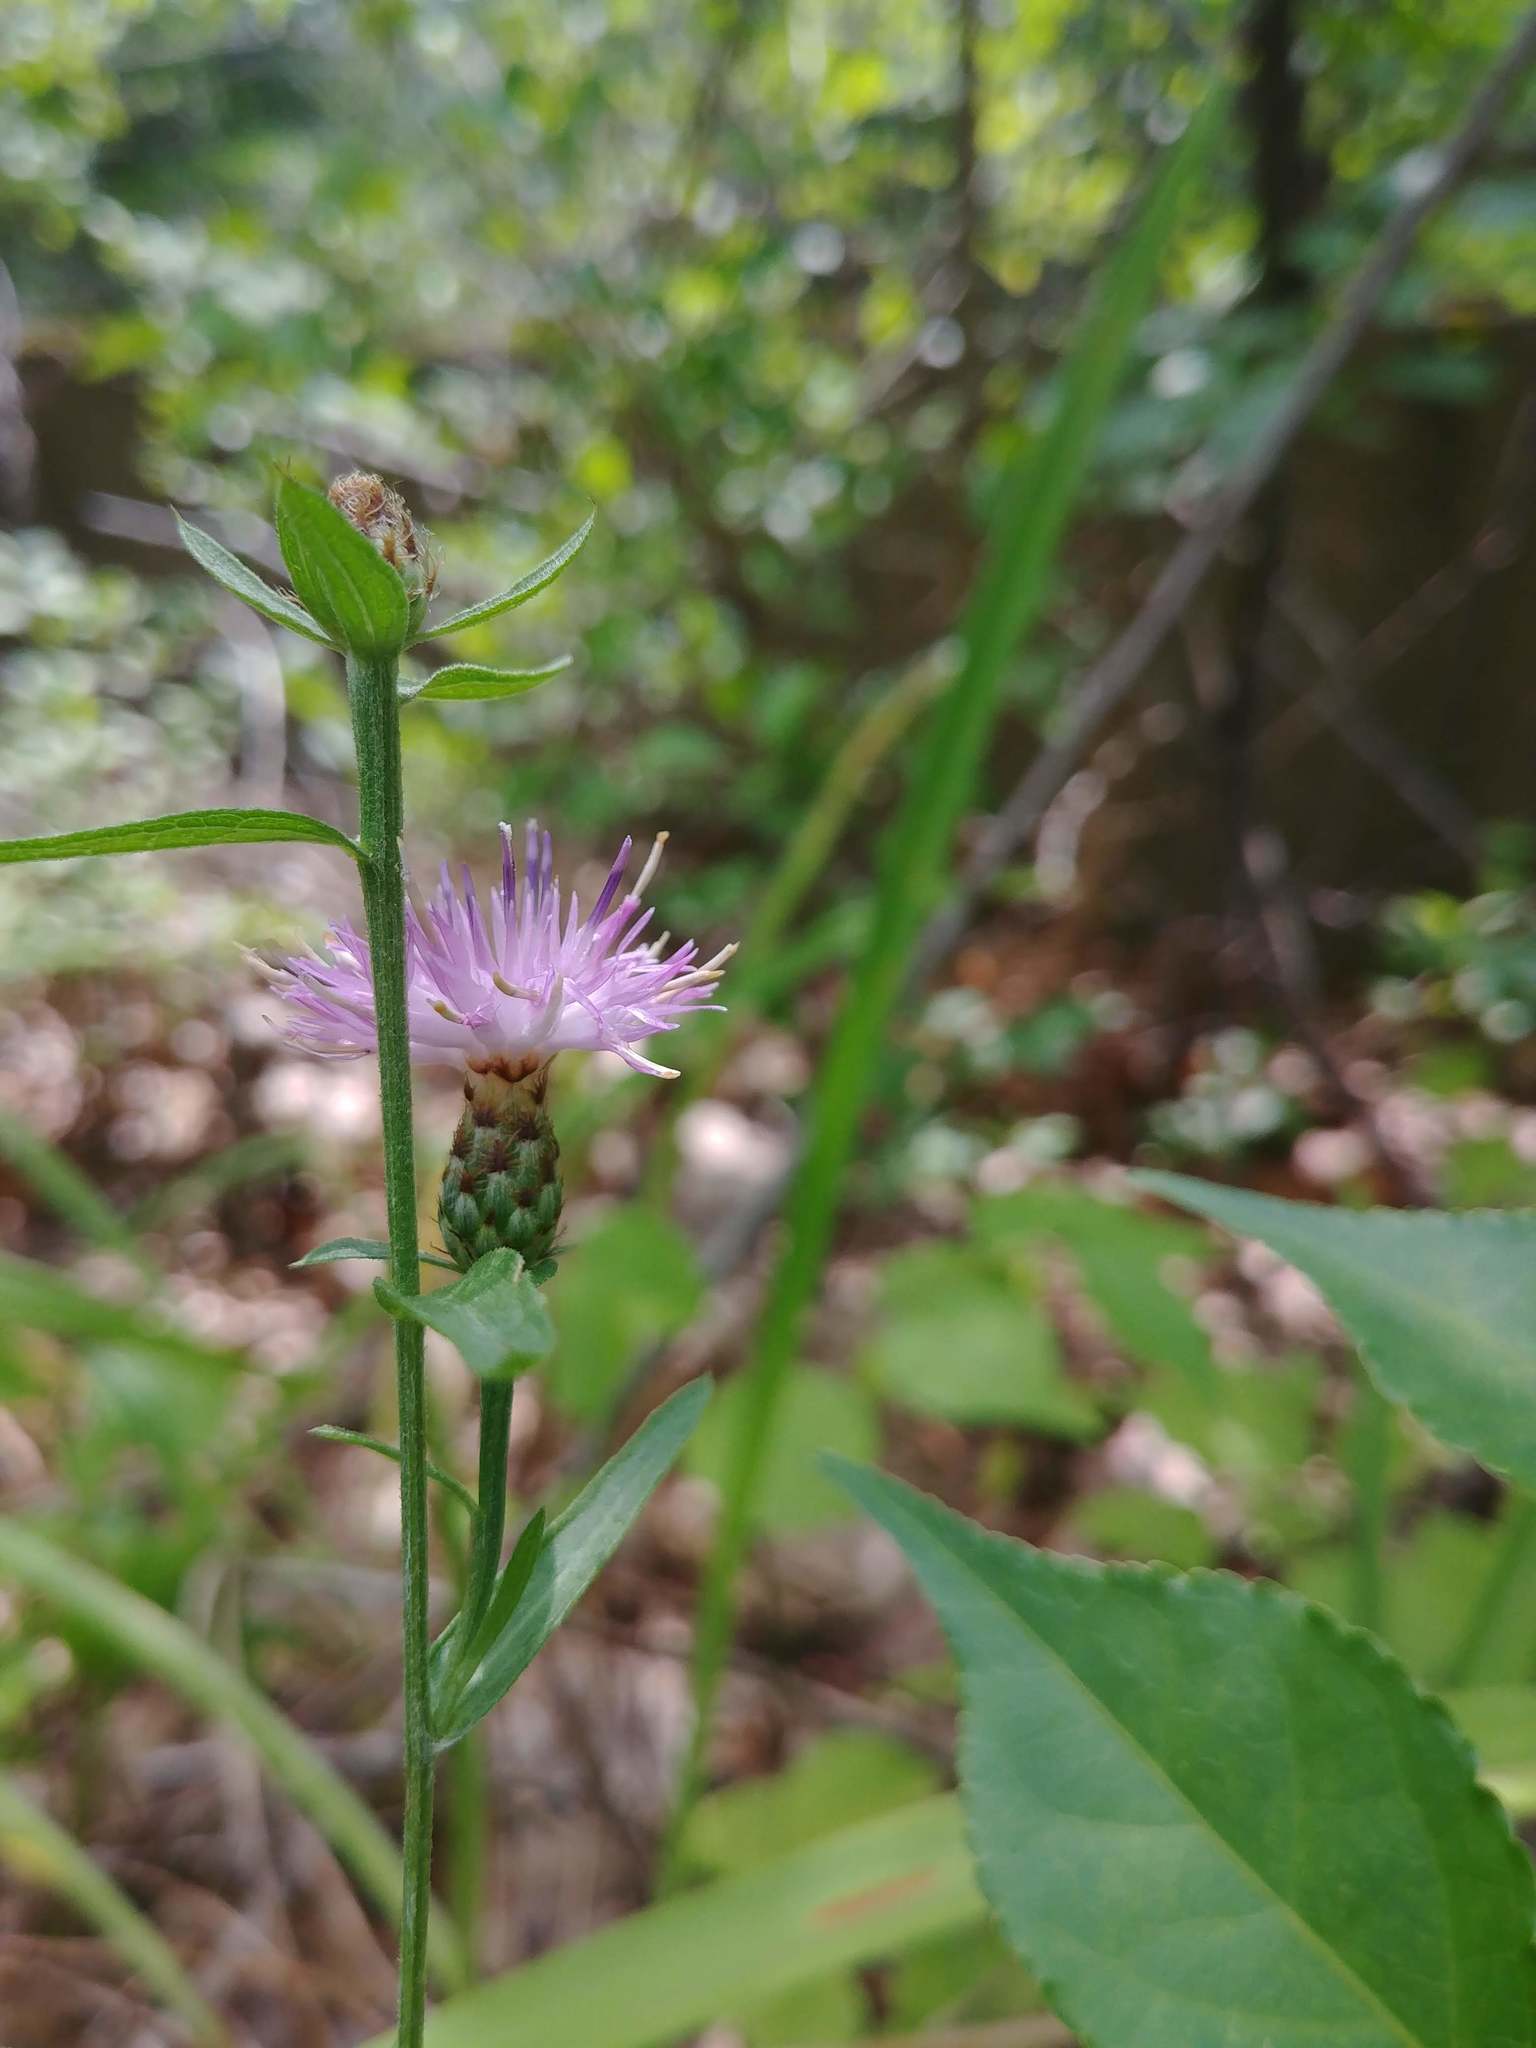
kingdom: Plantae
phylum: Tracheophyta
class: Magnoliopsida
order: Asterales
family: Asteraceae
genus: Centaurea
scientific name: Centaurea stoebe
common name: Spotted knapweed
